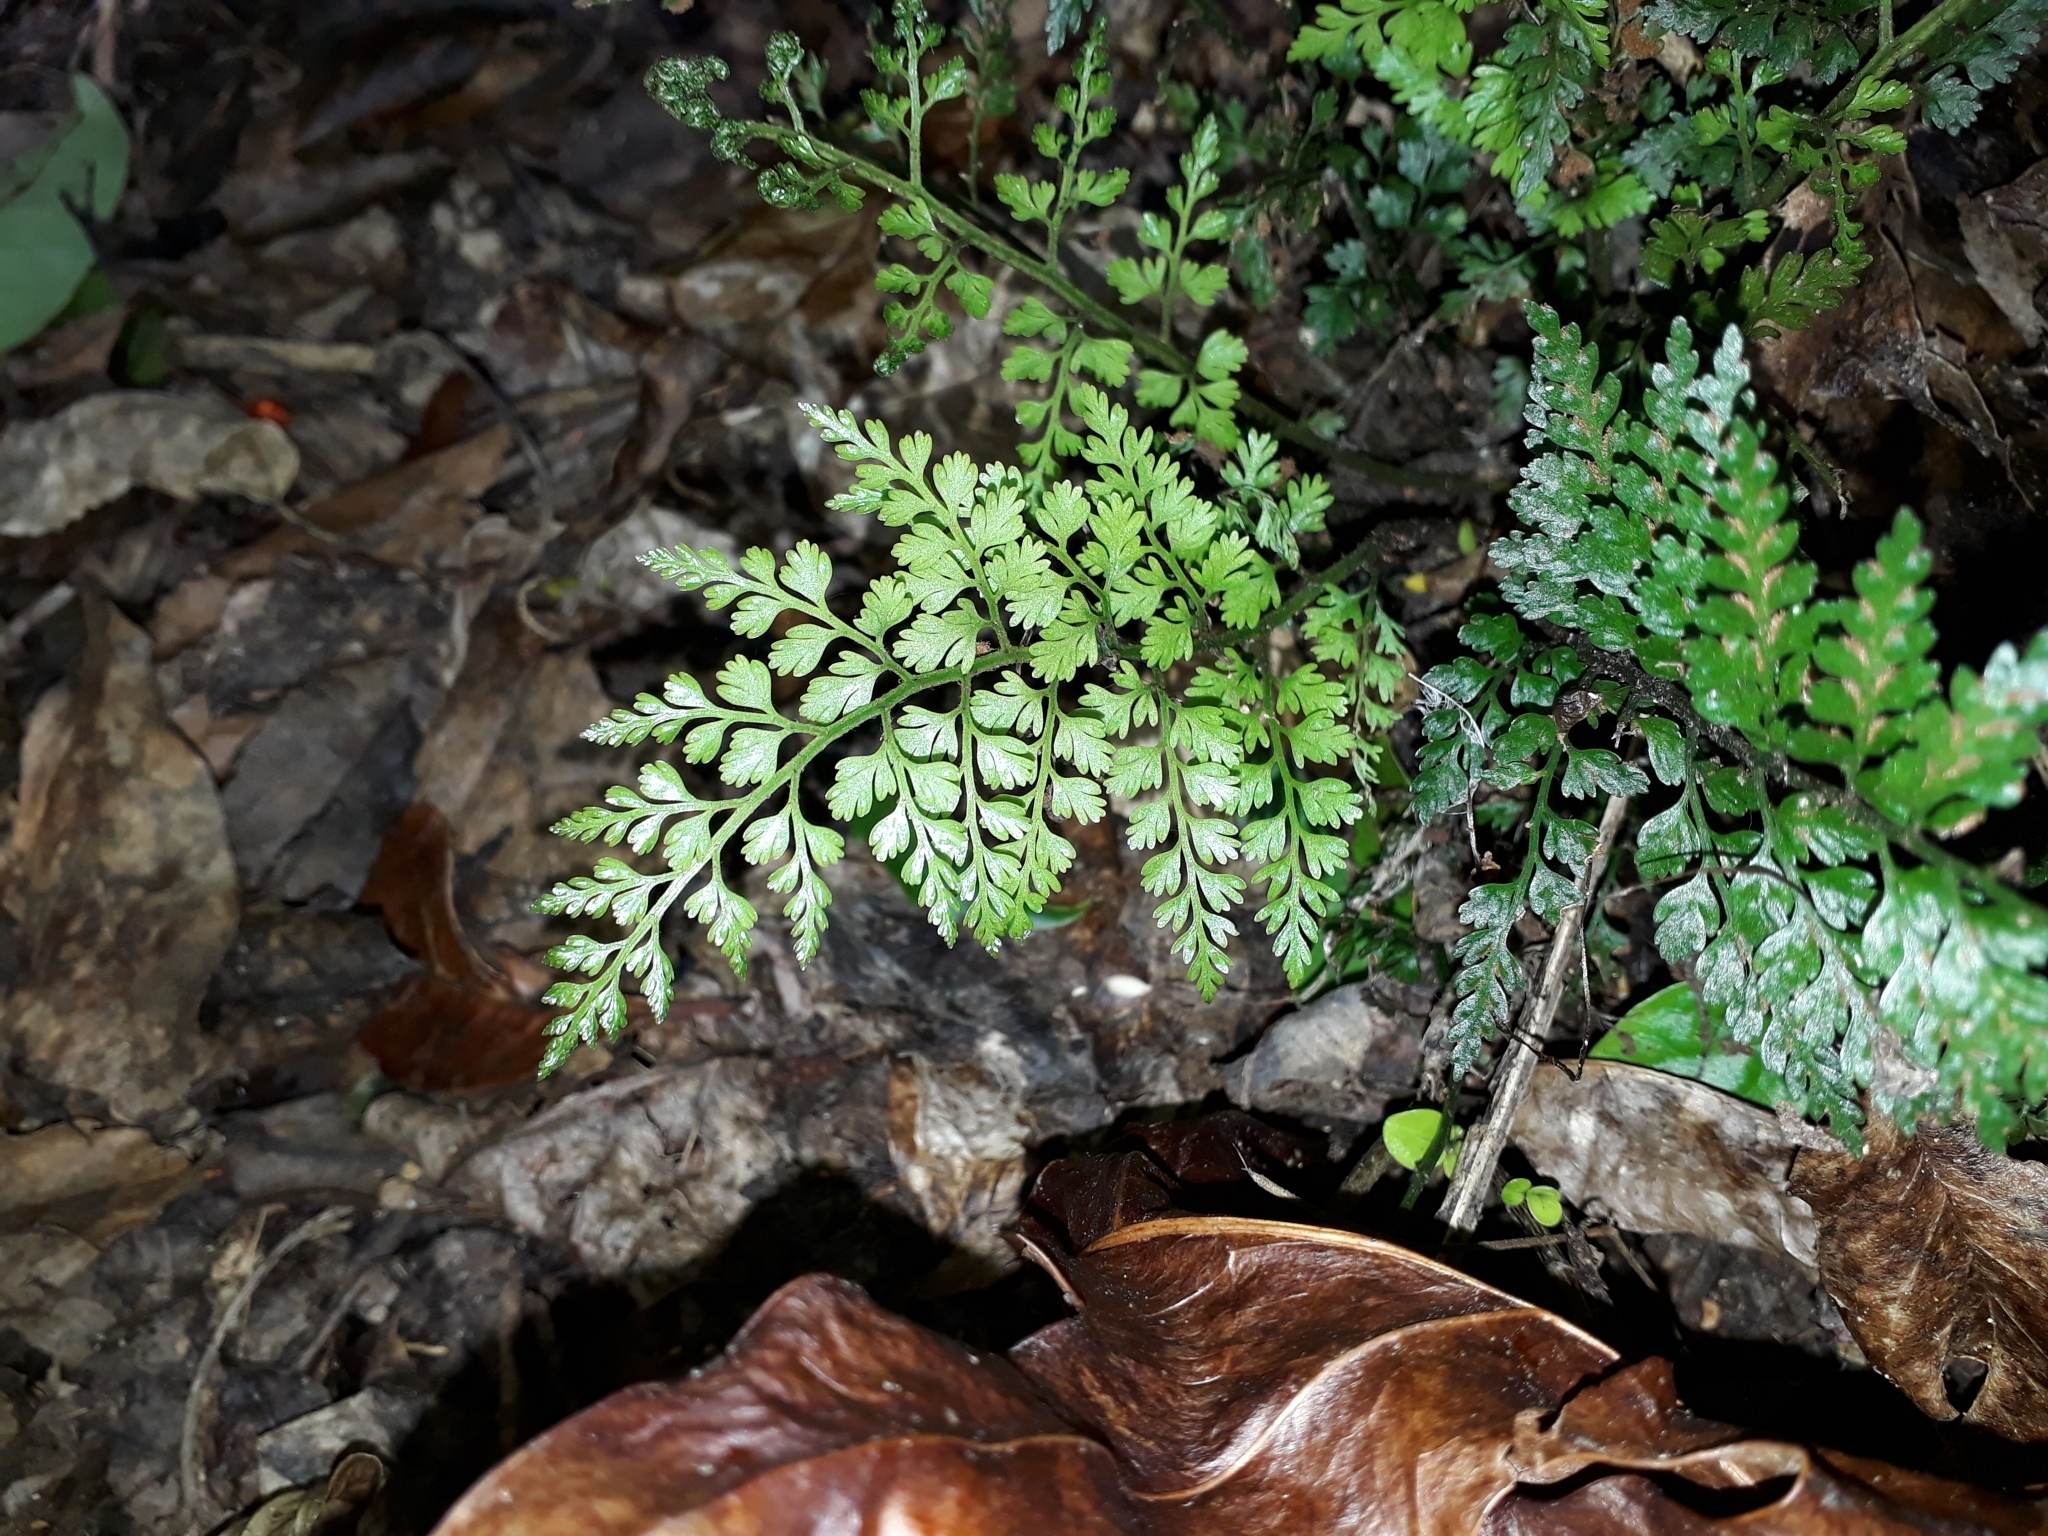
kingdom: Plantae
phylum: Tracheophyta
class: Polypodiopsida
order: Polypodiales
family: Aspleniaceae
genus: Asplenium
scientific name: Asplenium hookerianum
